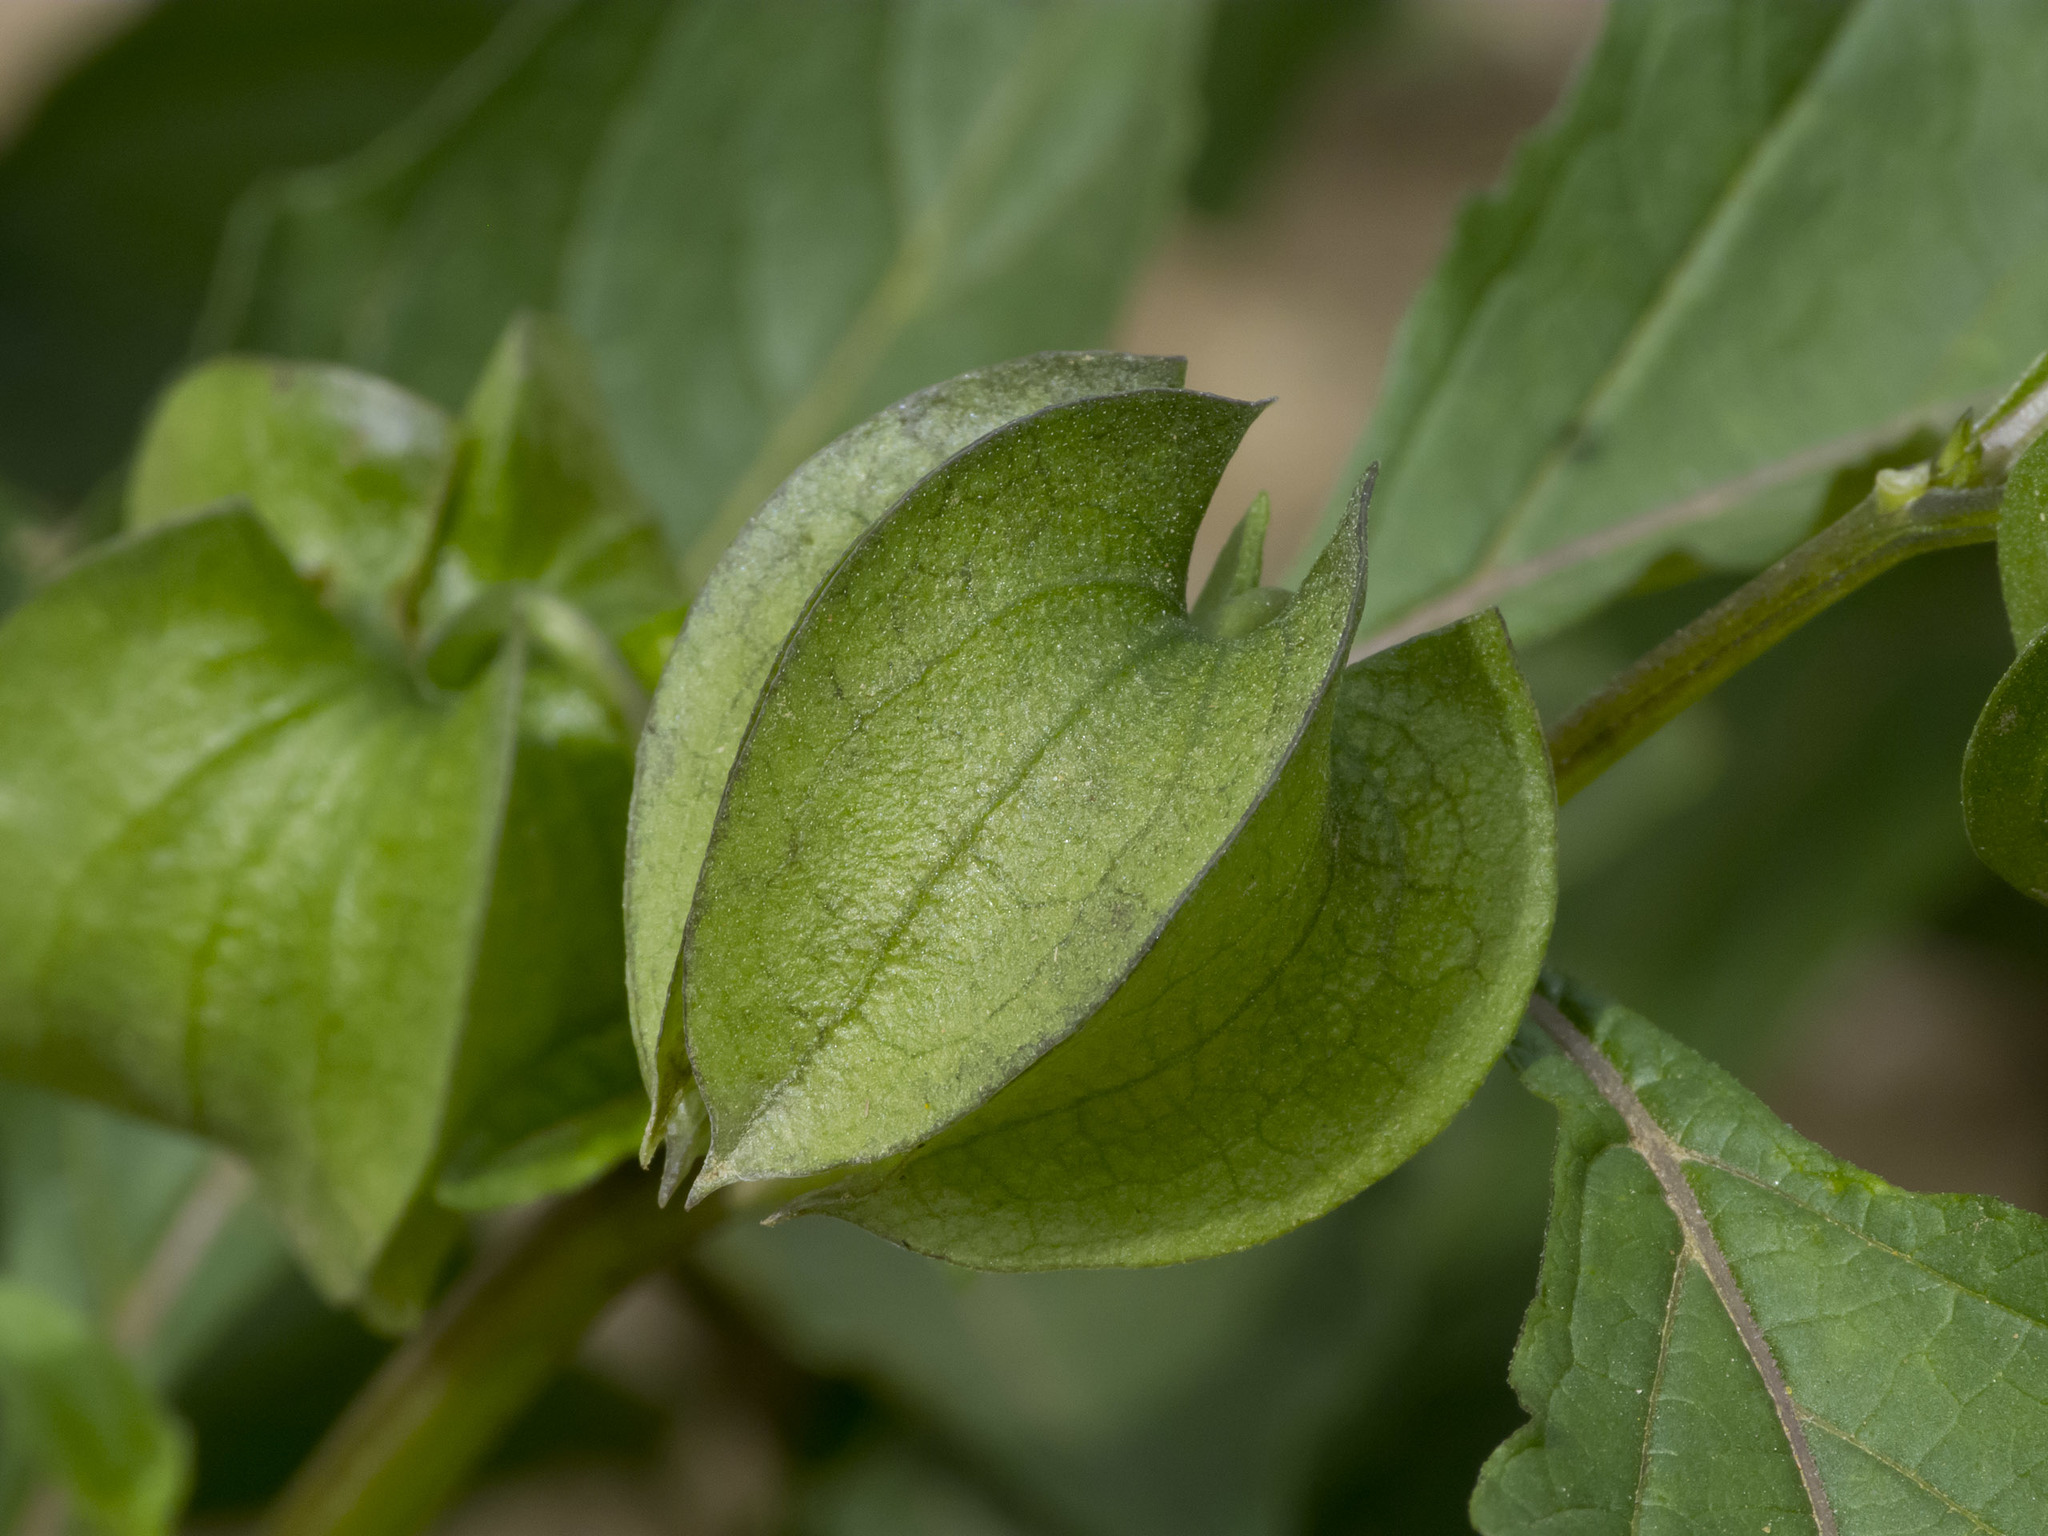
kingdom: Plantae
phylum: Tracheophyta
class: Magnoliopsida
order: Solanales
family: Solanaceae
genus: Nicandra
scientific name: Nicandra physalodes
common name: Apple-of-peru
